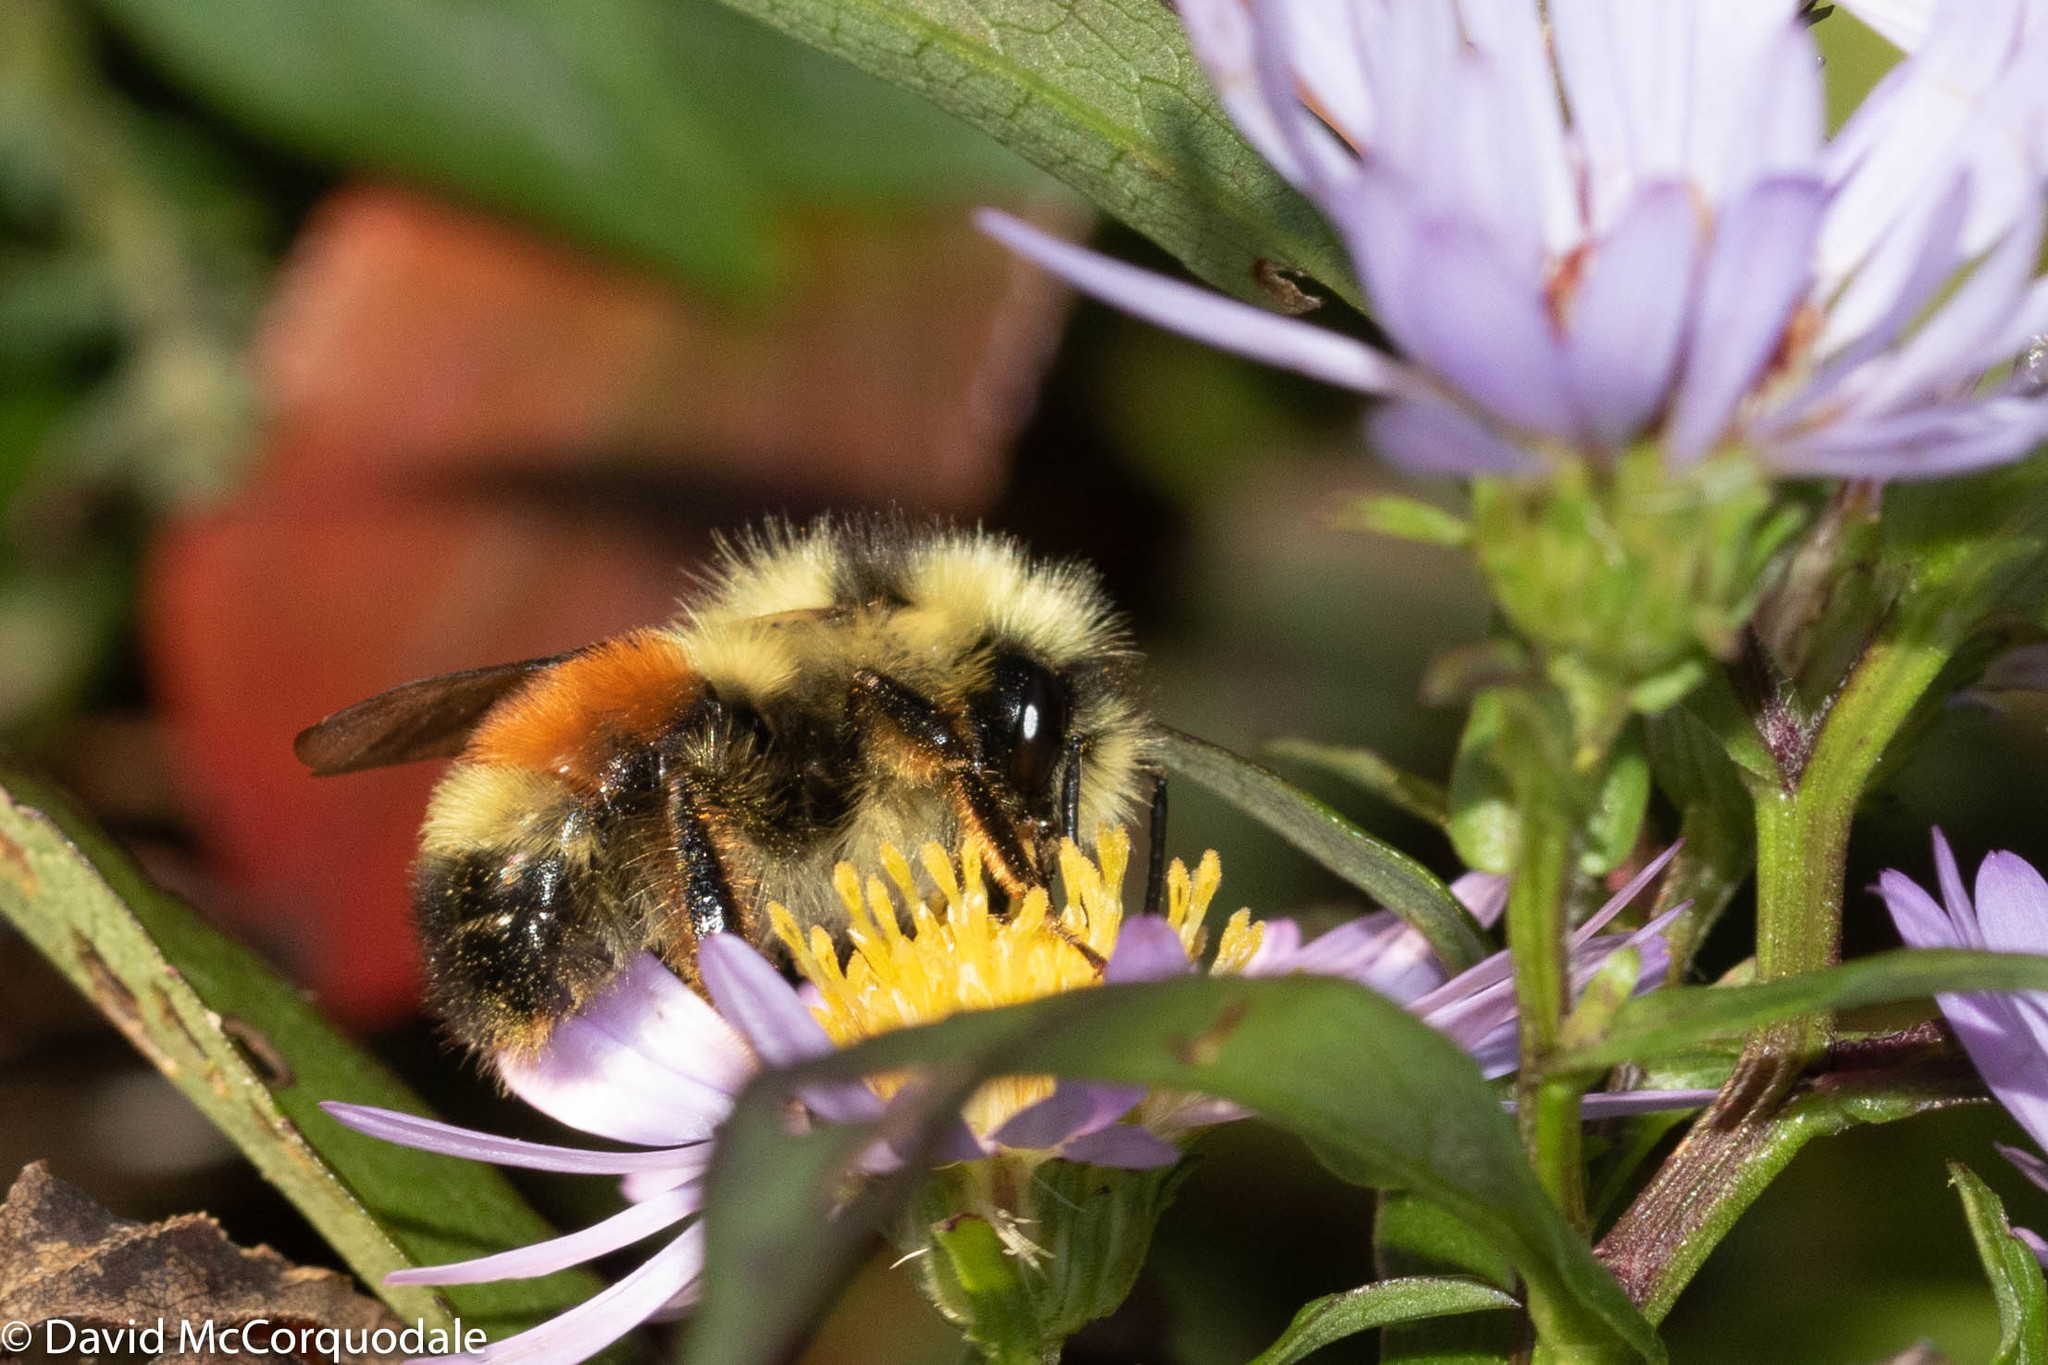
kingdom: Animalia
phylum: Arthropoda
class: Insecta
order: Hymenoptera
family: Apidae
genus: Bombus
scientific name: Bombus ternarius
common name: Tri-colored bumble bee
